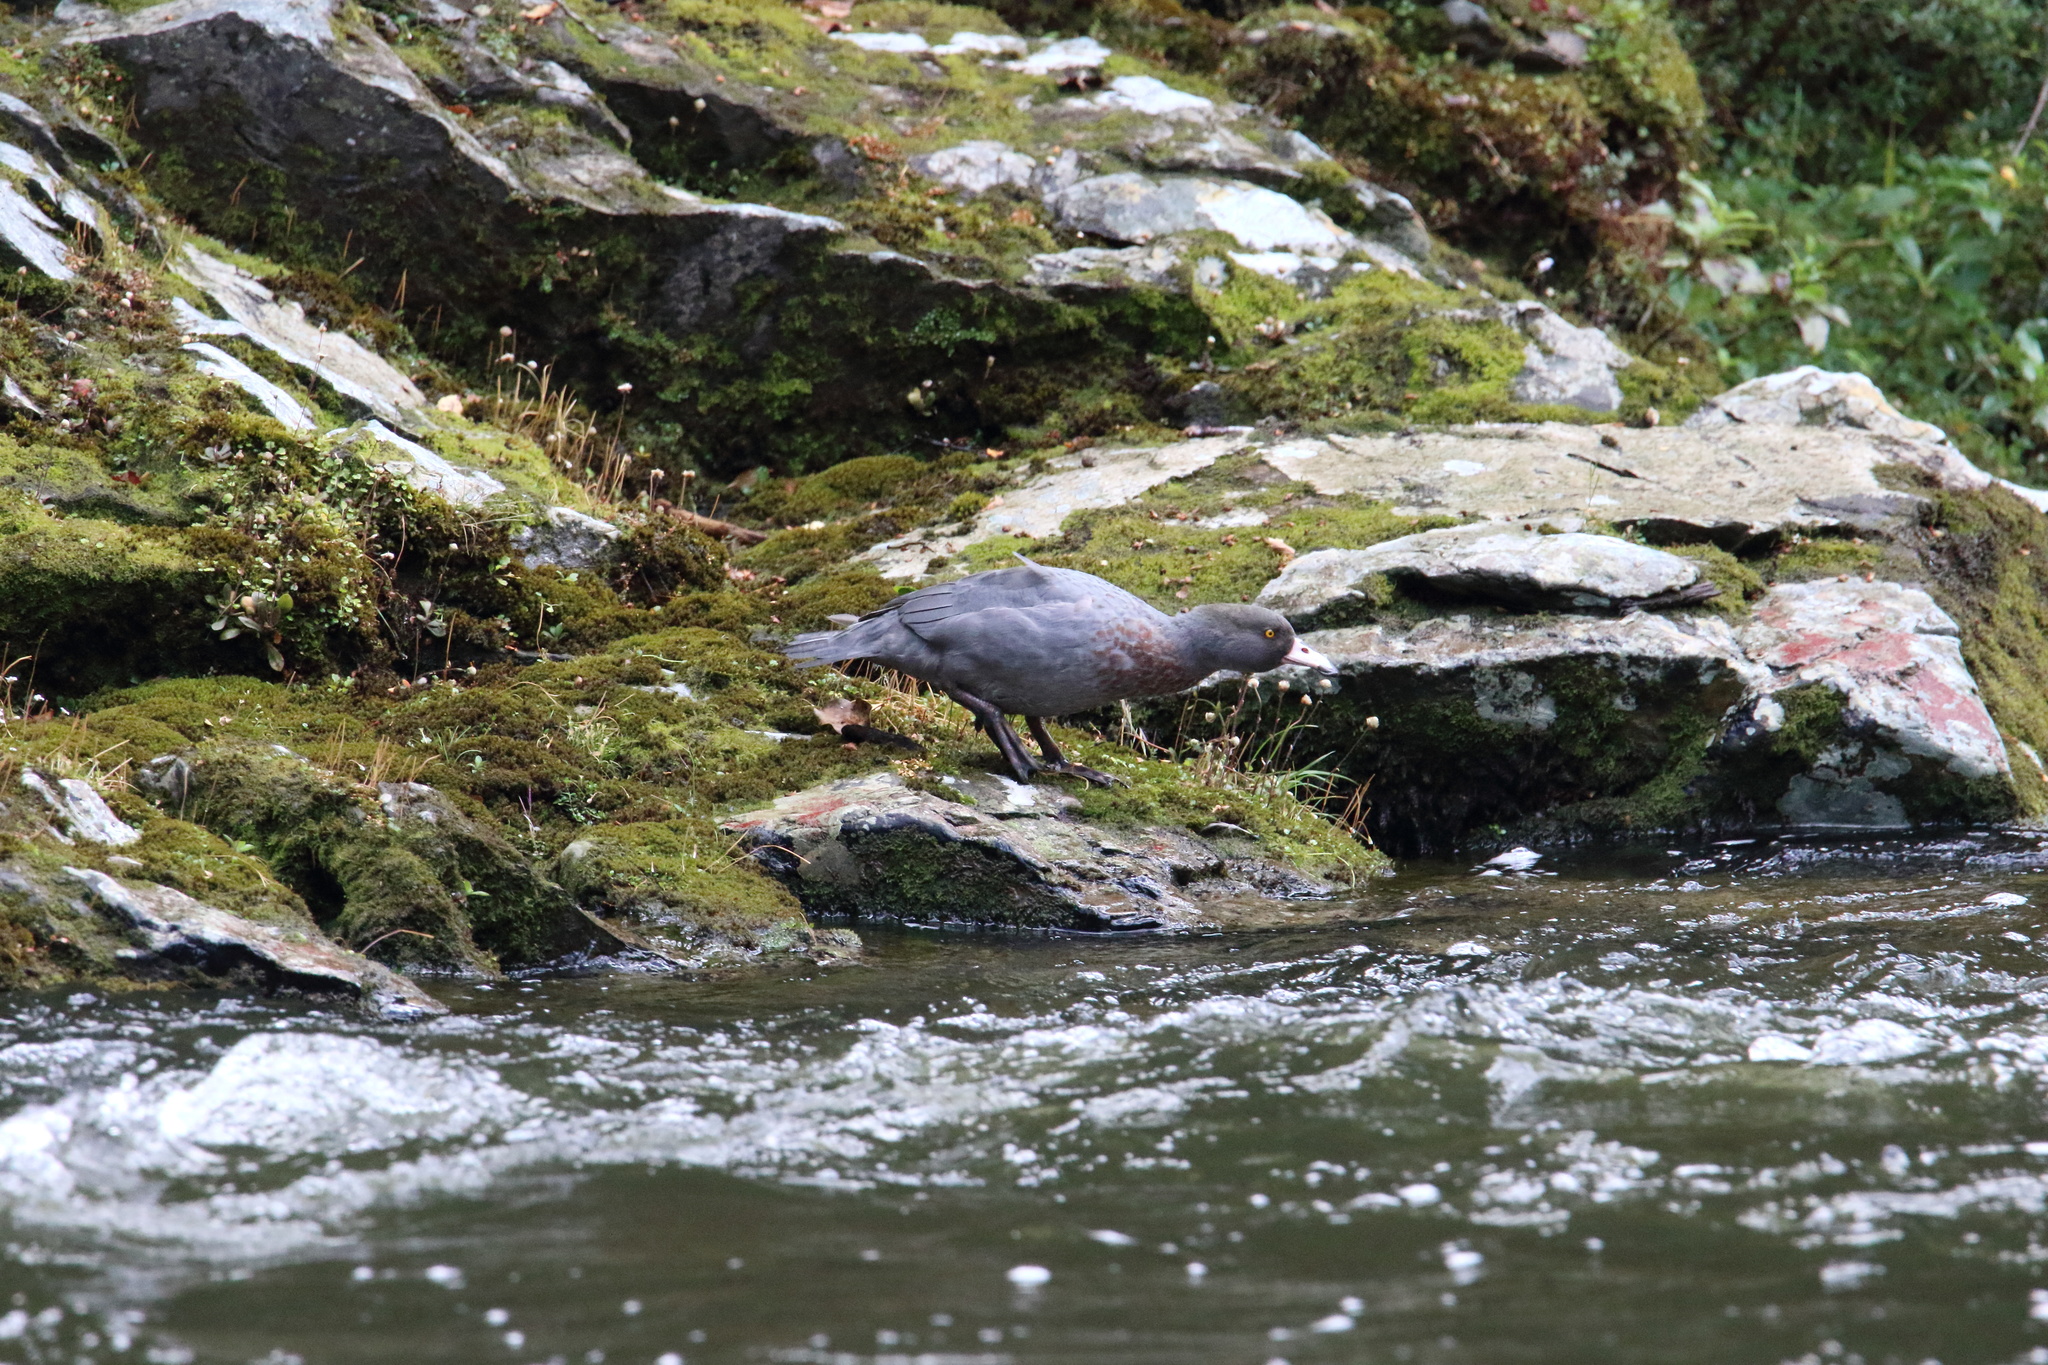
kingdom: Animalia
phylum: Chordata
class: Aves
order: Anseriformes
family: Anatidae
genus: Hymenolaimus
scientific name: Hymenolaimus malacorhynchos
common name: Blue duck
